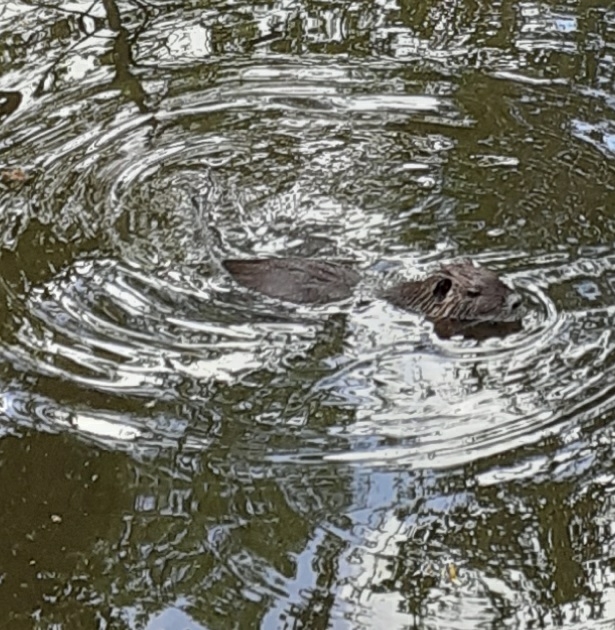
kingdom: Animalia
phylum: Chordata
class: Mammalia
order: Rodentia
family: Myocastoridae
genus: Myocastor
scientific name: Myocastor coypus
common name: Coypu
